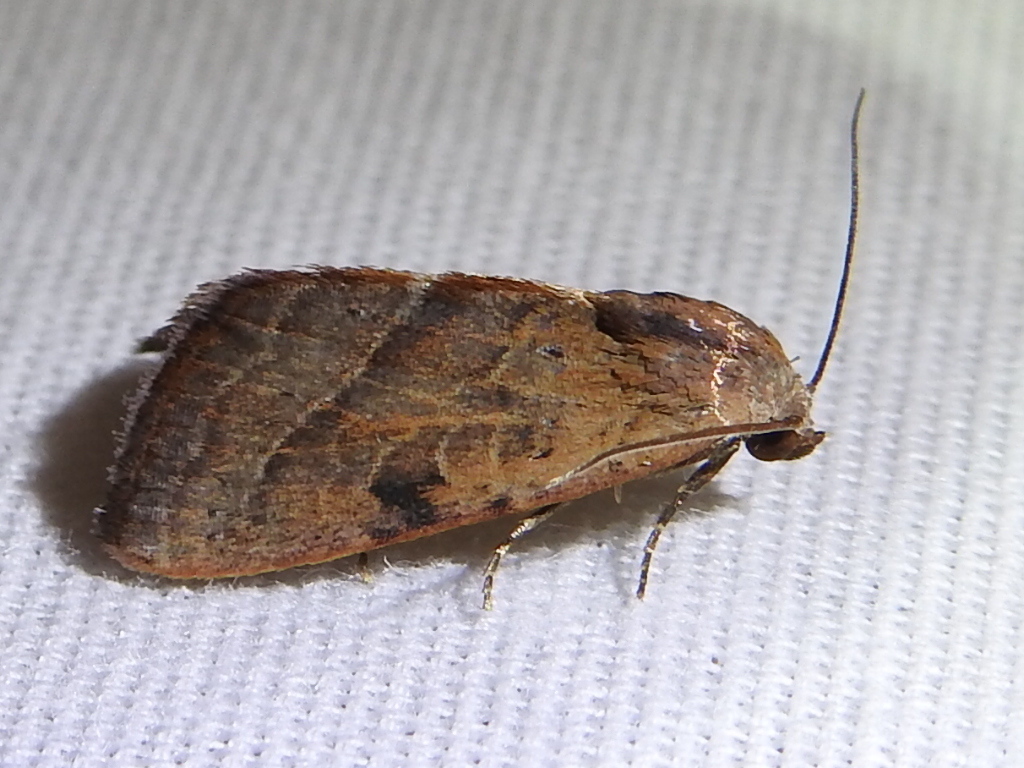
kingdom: Animalia
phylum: Arthropoda
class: Insecta
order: Lepidoptera
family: Noctuidae
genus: Galgula
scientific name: Galgula partita
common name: Wedgeling
